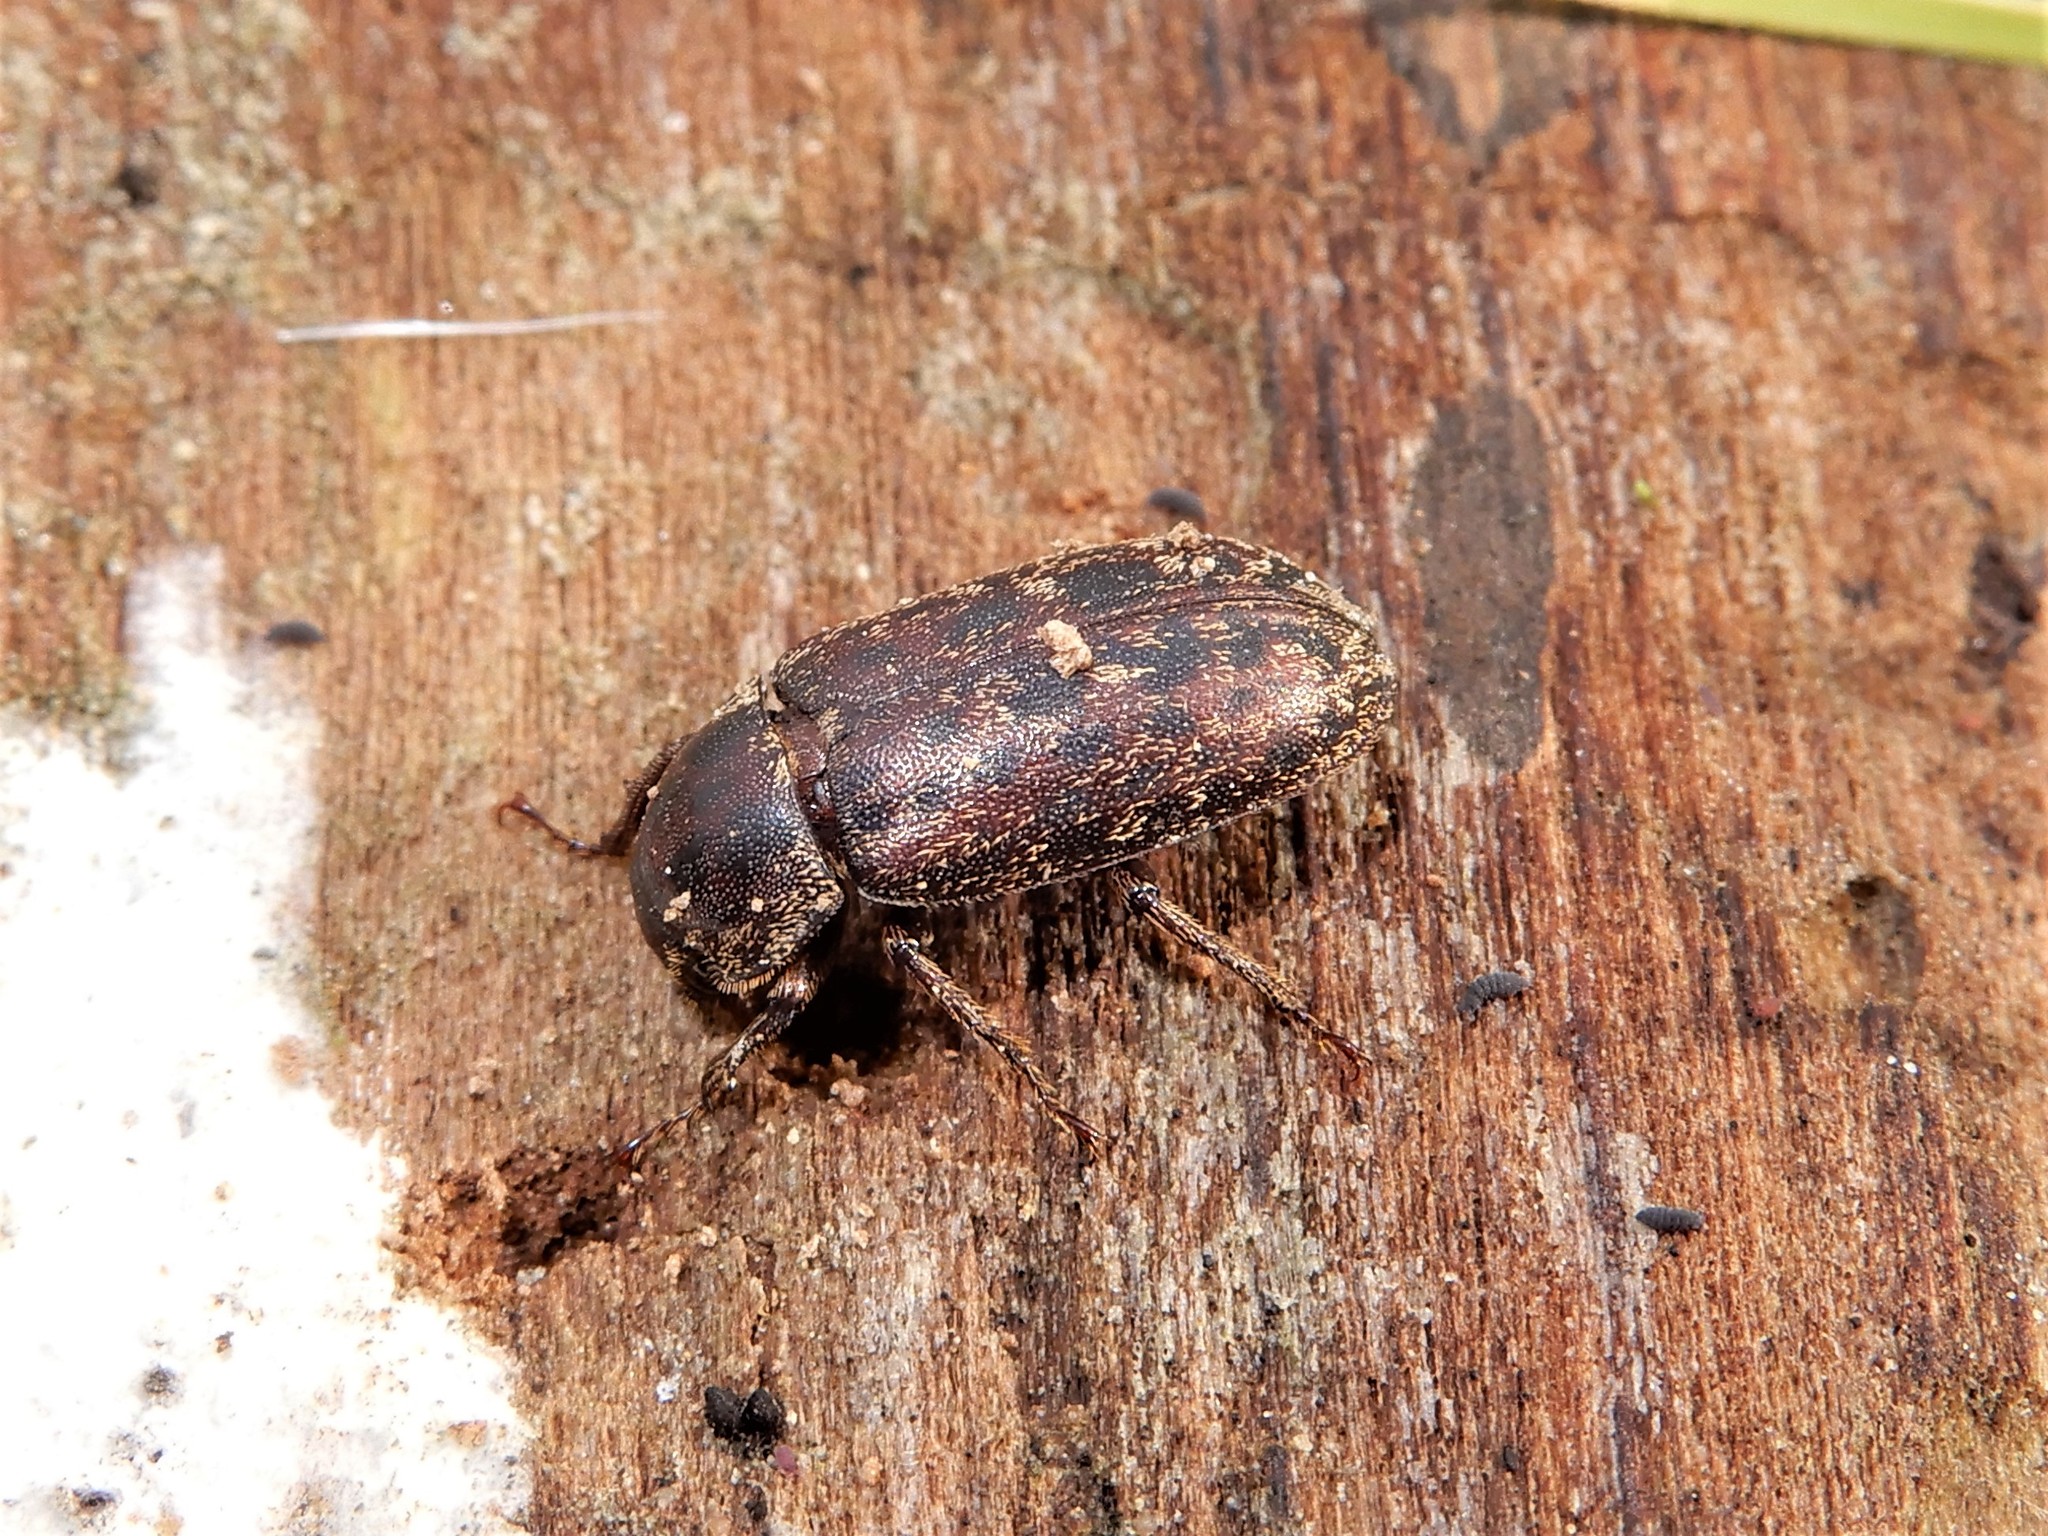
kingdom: Animalia
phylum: Arthropoda
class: Insecta
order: Coleoptera
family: Lucanidae
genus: Mitophyllus
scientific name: Mitophyllus irroratus
